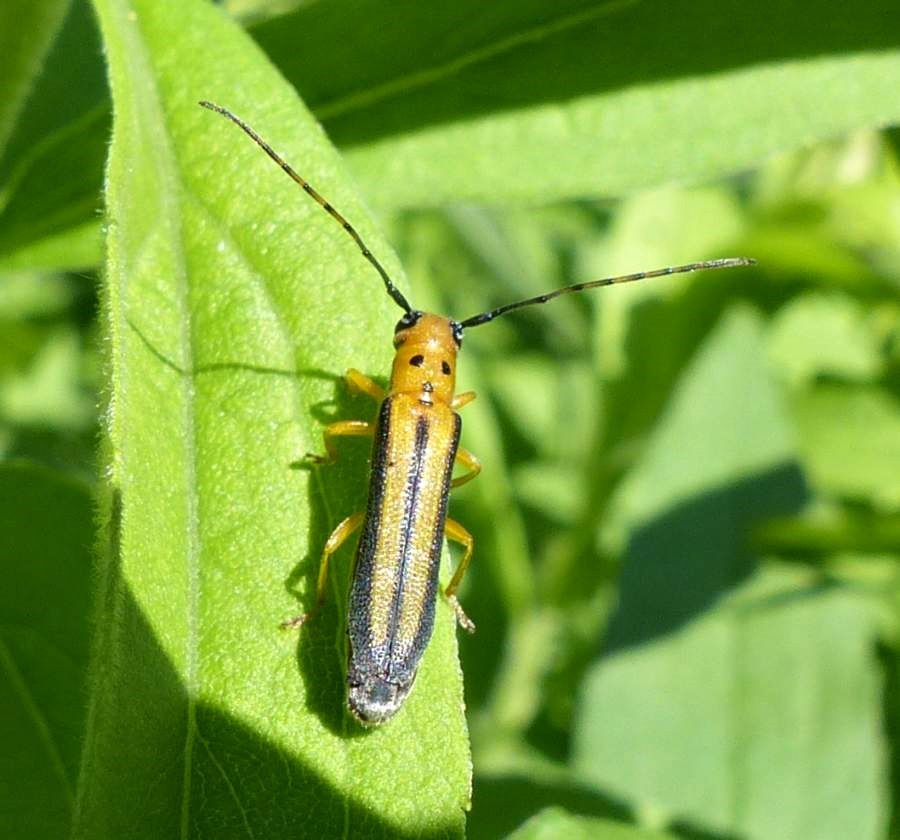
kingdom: Animalia
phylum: Arthropoda
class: Insecta
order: Coleoptera
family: Cerambycidae
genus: Oberea
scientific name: Oberea tripunctata
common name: Dogwood twig borer
